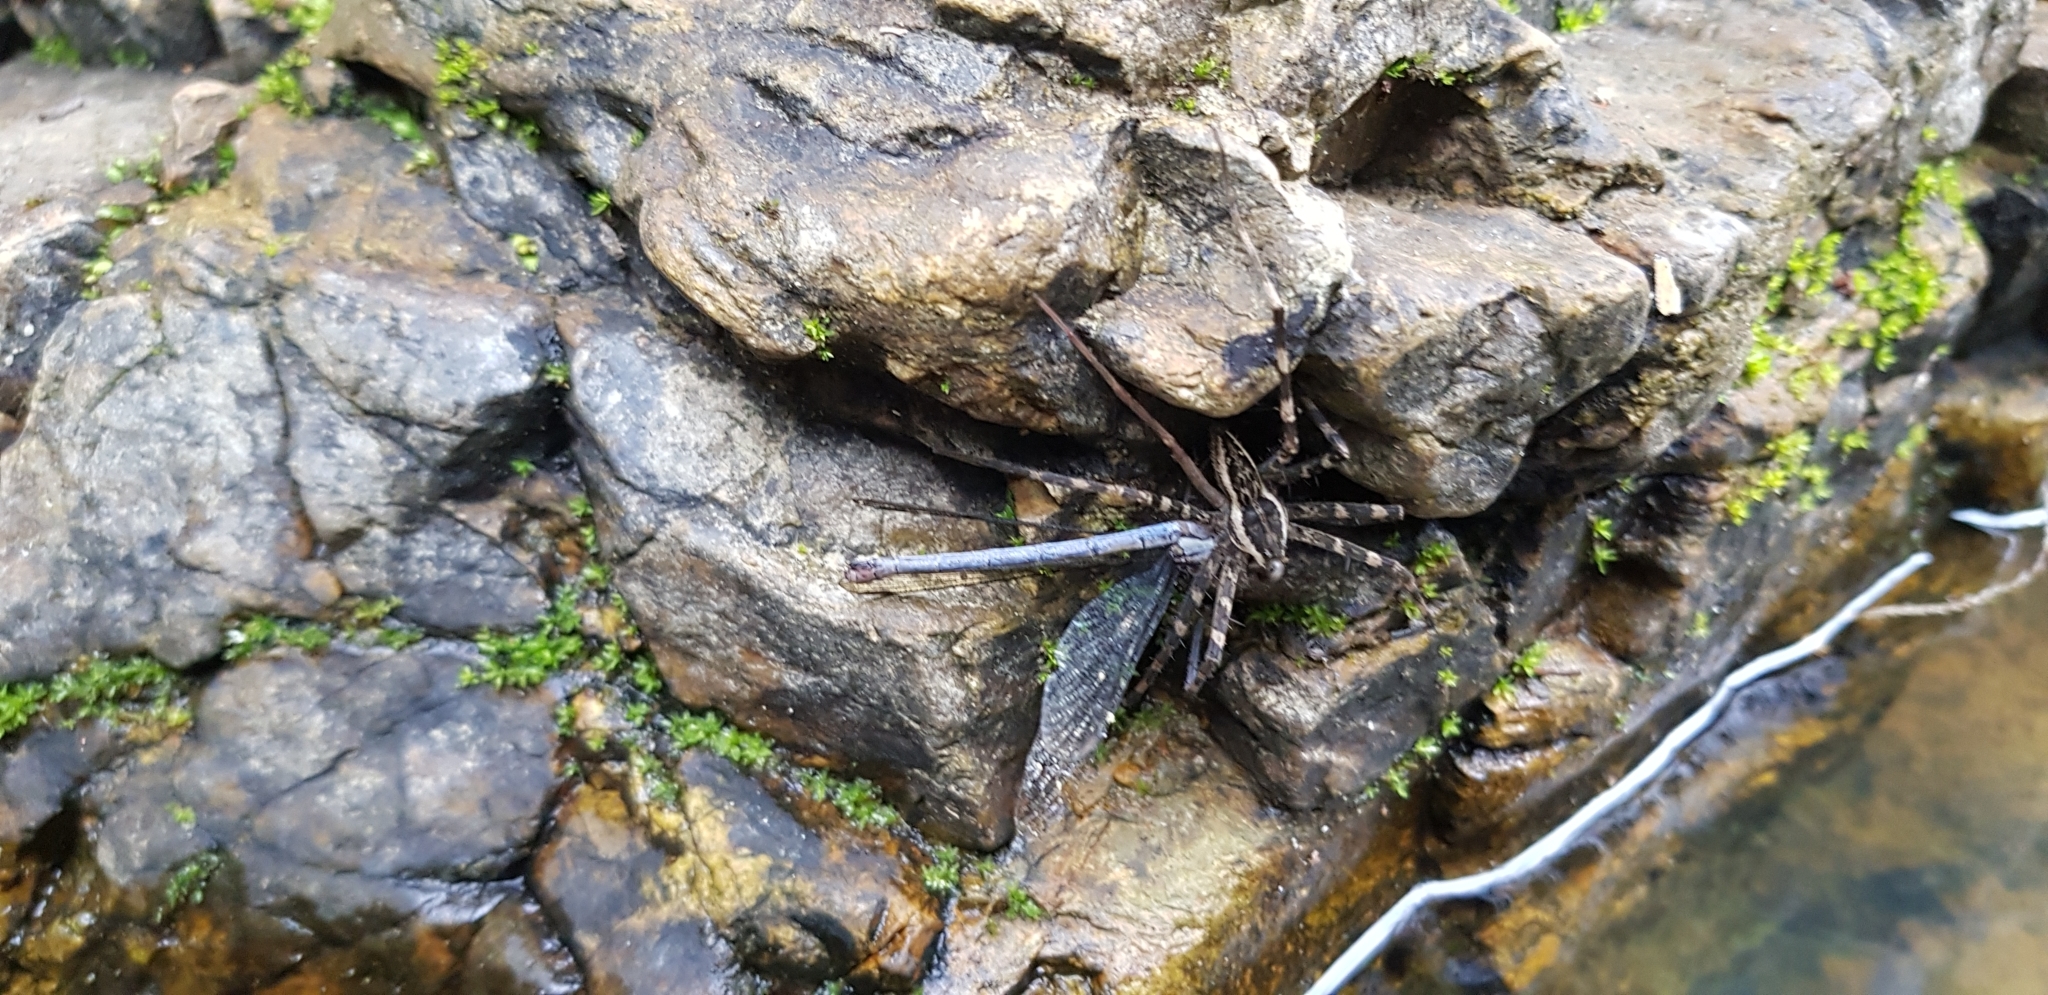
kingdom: Animalia
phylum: Arthropoda
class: Arachnida
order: Araneae
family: Pisauridae
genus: Megadolomedes
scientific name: Megadolomedes trux
